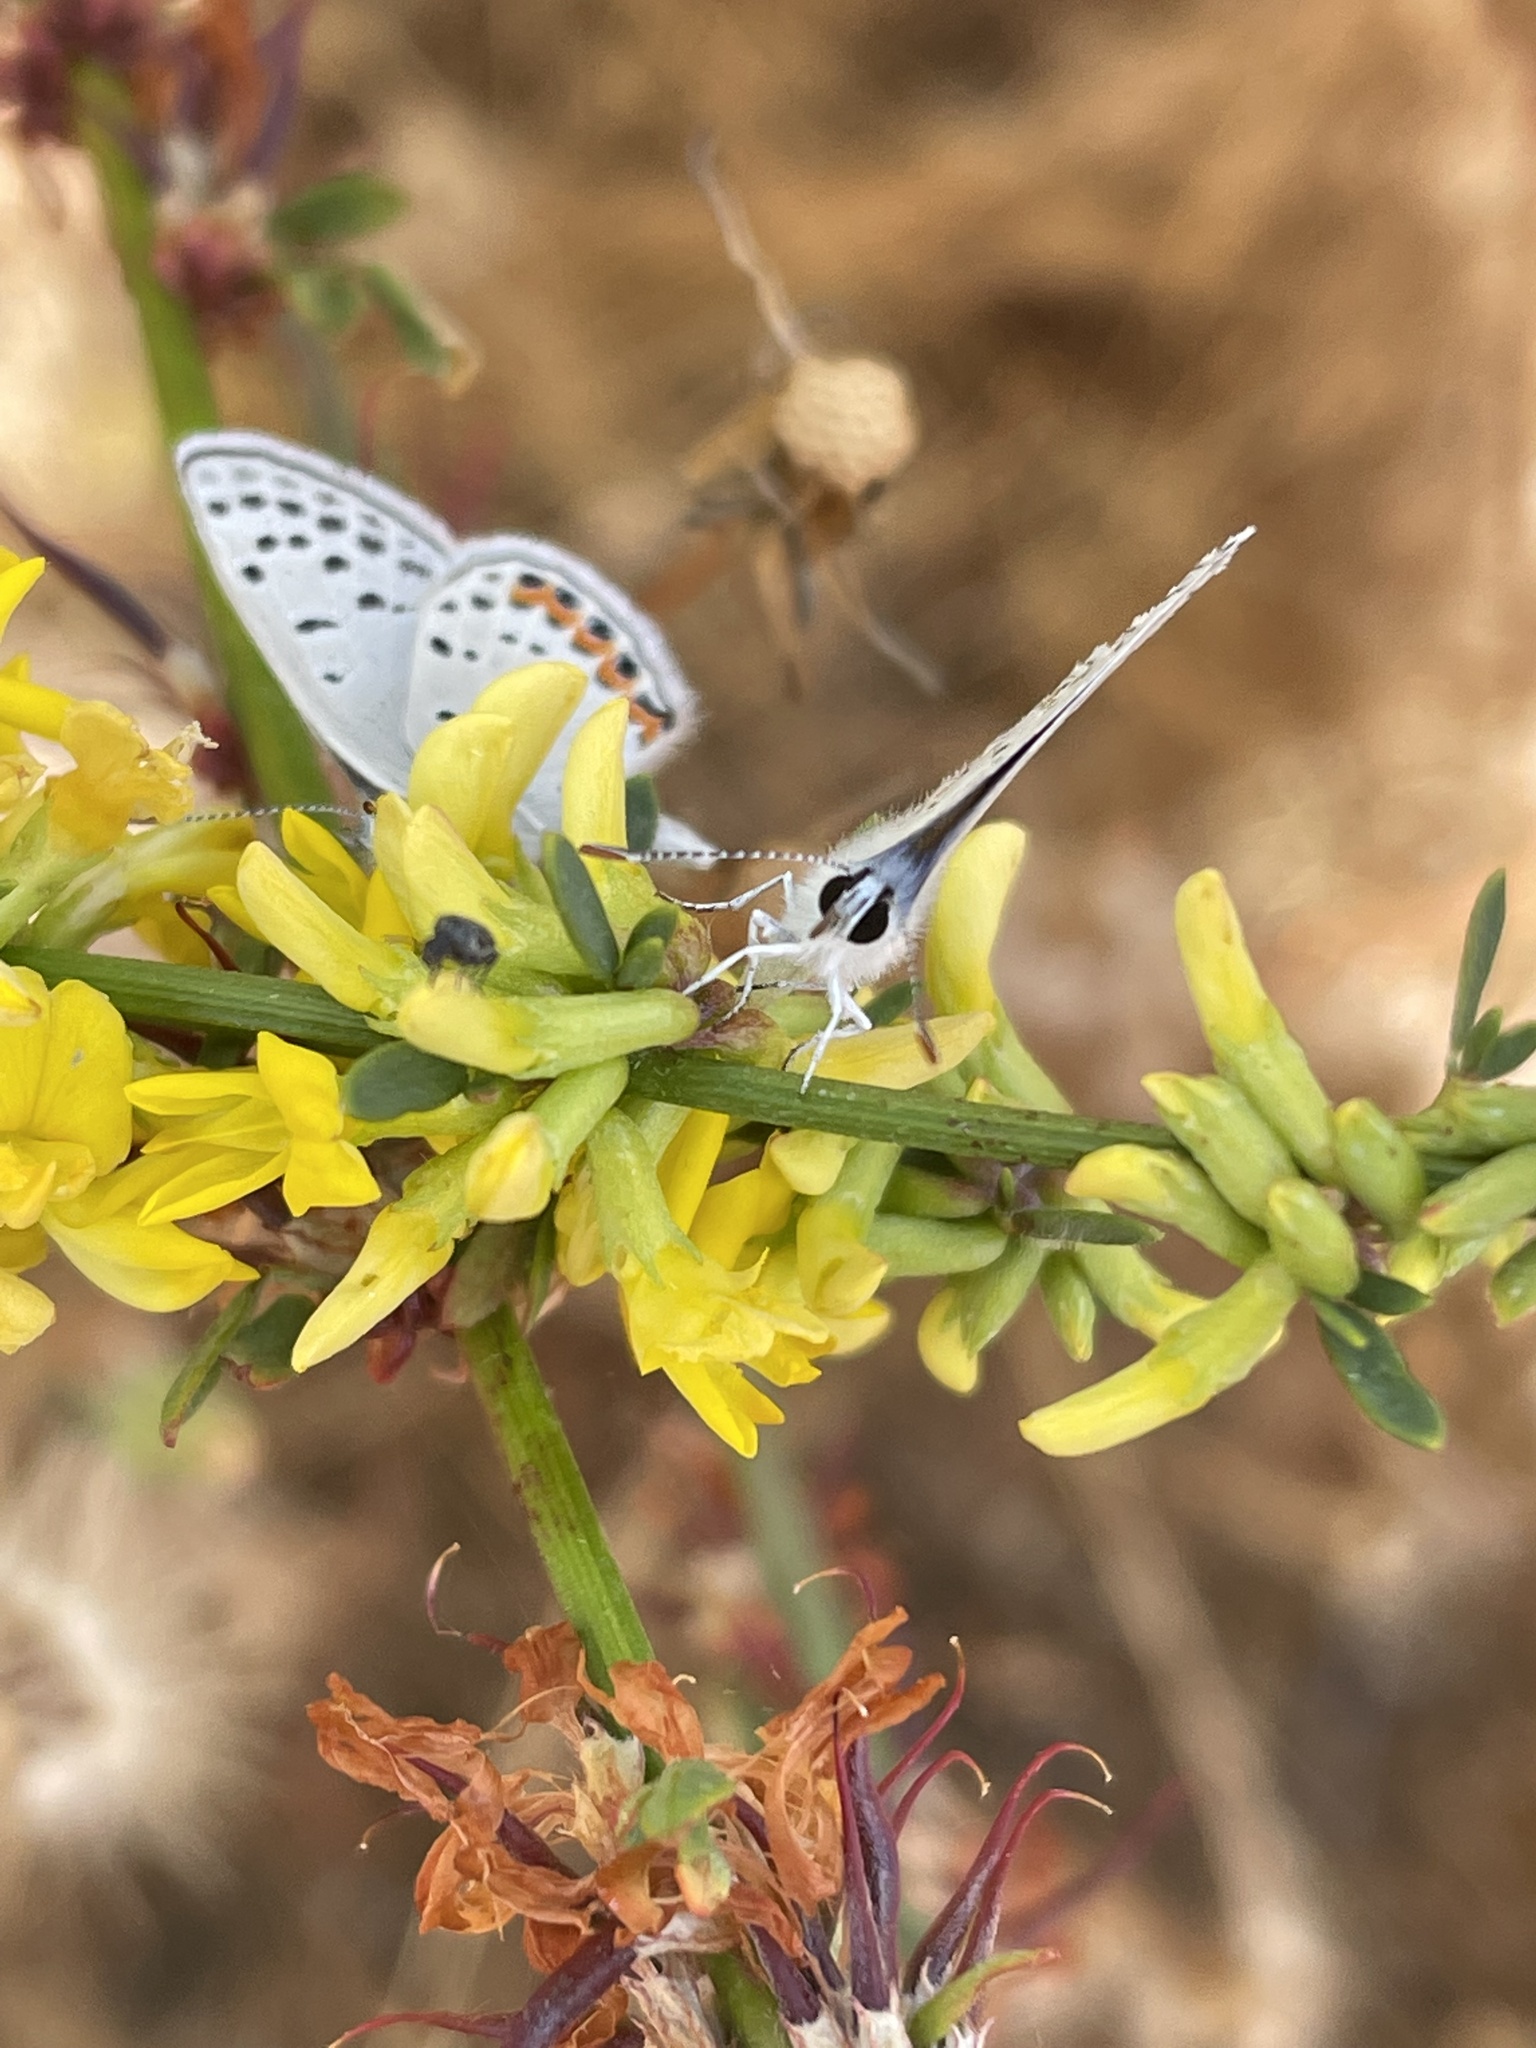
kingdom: Animalia
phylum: Arthropoda
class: Insecta
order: Lepidoptera
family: Lycaenidae
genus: Icaricia
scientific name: Icaricia acmon
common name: Acmon blue
